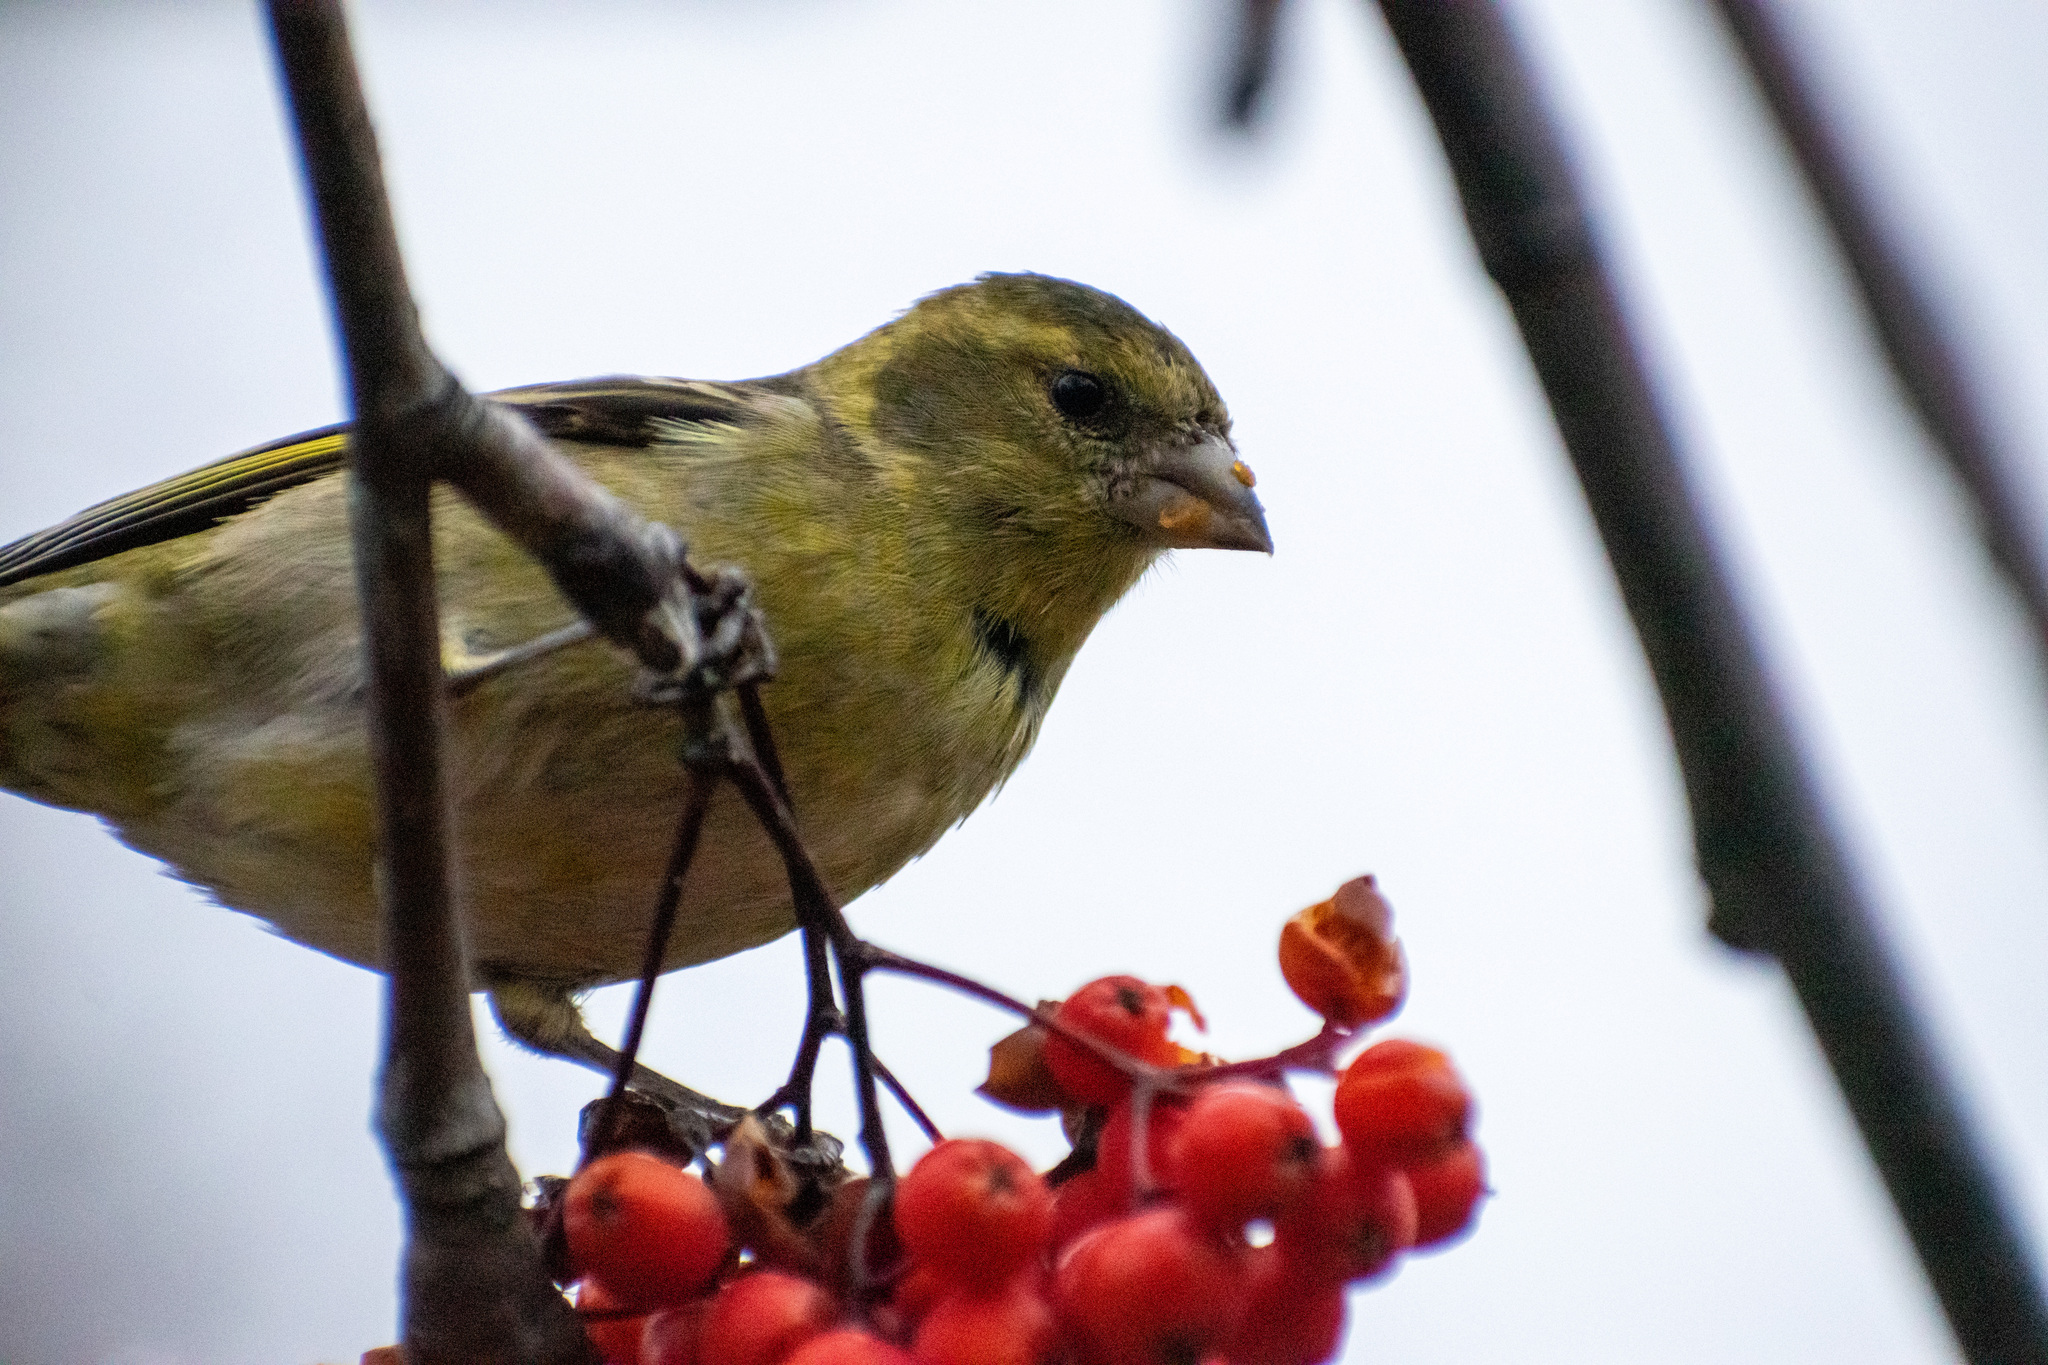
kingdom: Animalia
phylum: Chordata
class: Aves
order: Passeriformes
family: Fringillidae
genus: Spinus
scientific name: Spinus barbatus
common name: Black-chinned siskin
